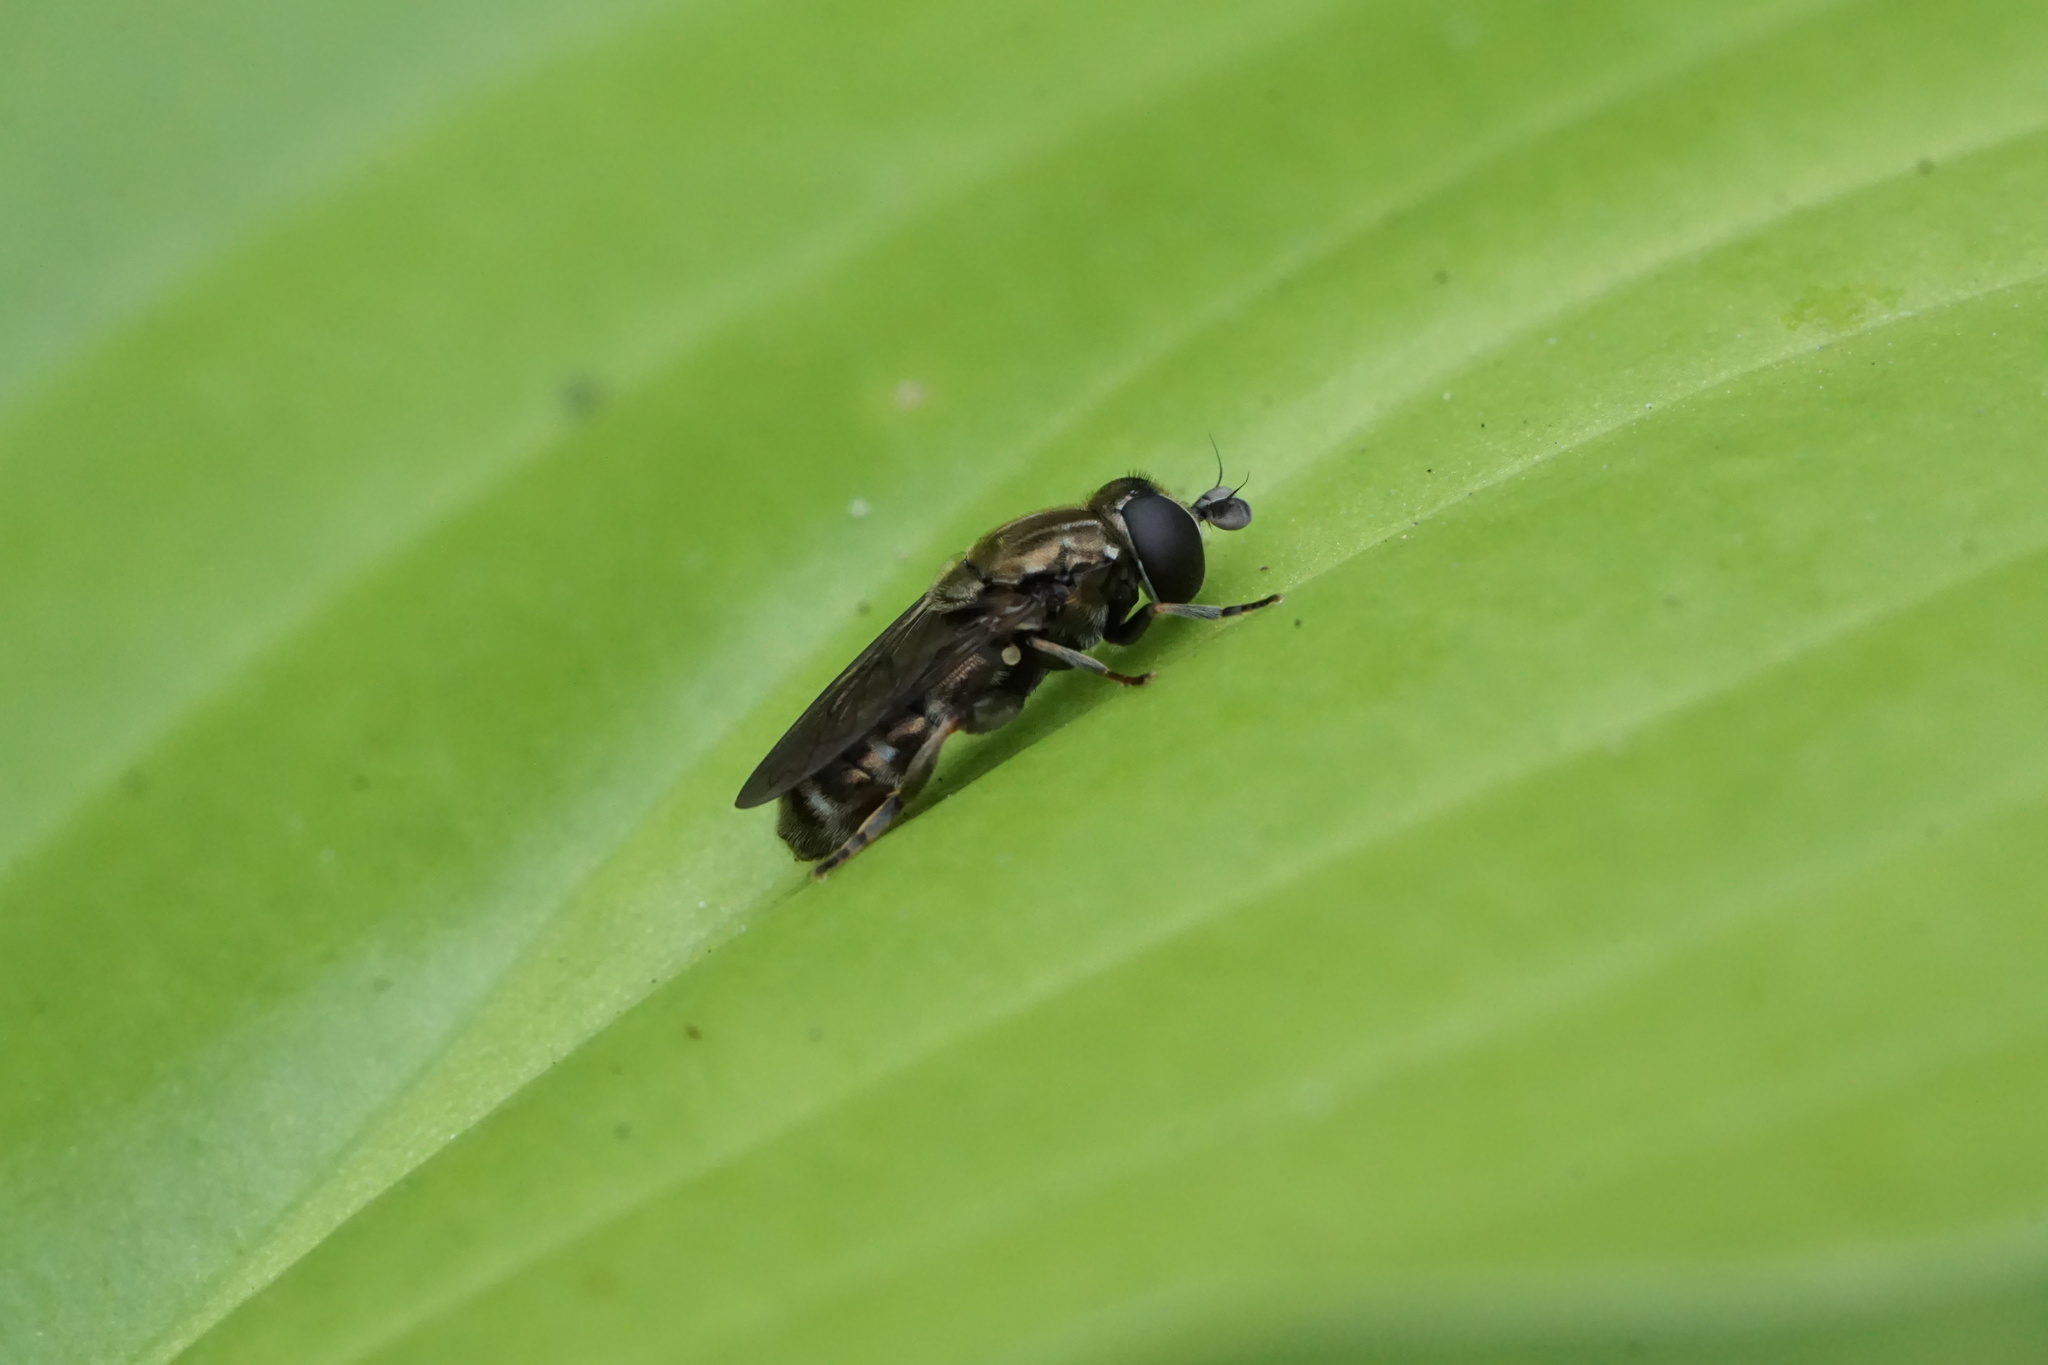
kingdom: Animalia
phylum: Arthropoda
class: Insecta
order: Diptera
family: Syrphidae
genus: Eumerus
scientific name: Eumerus
